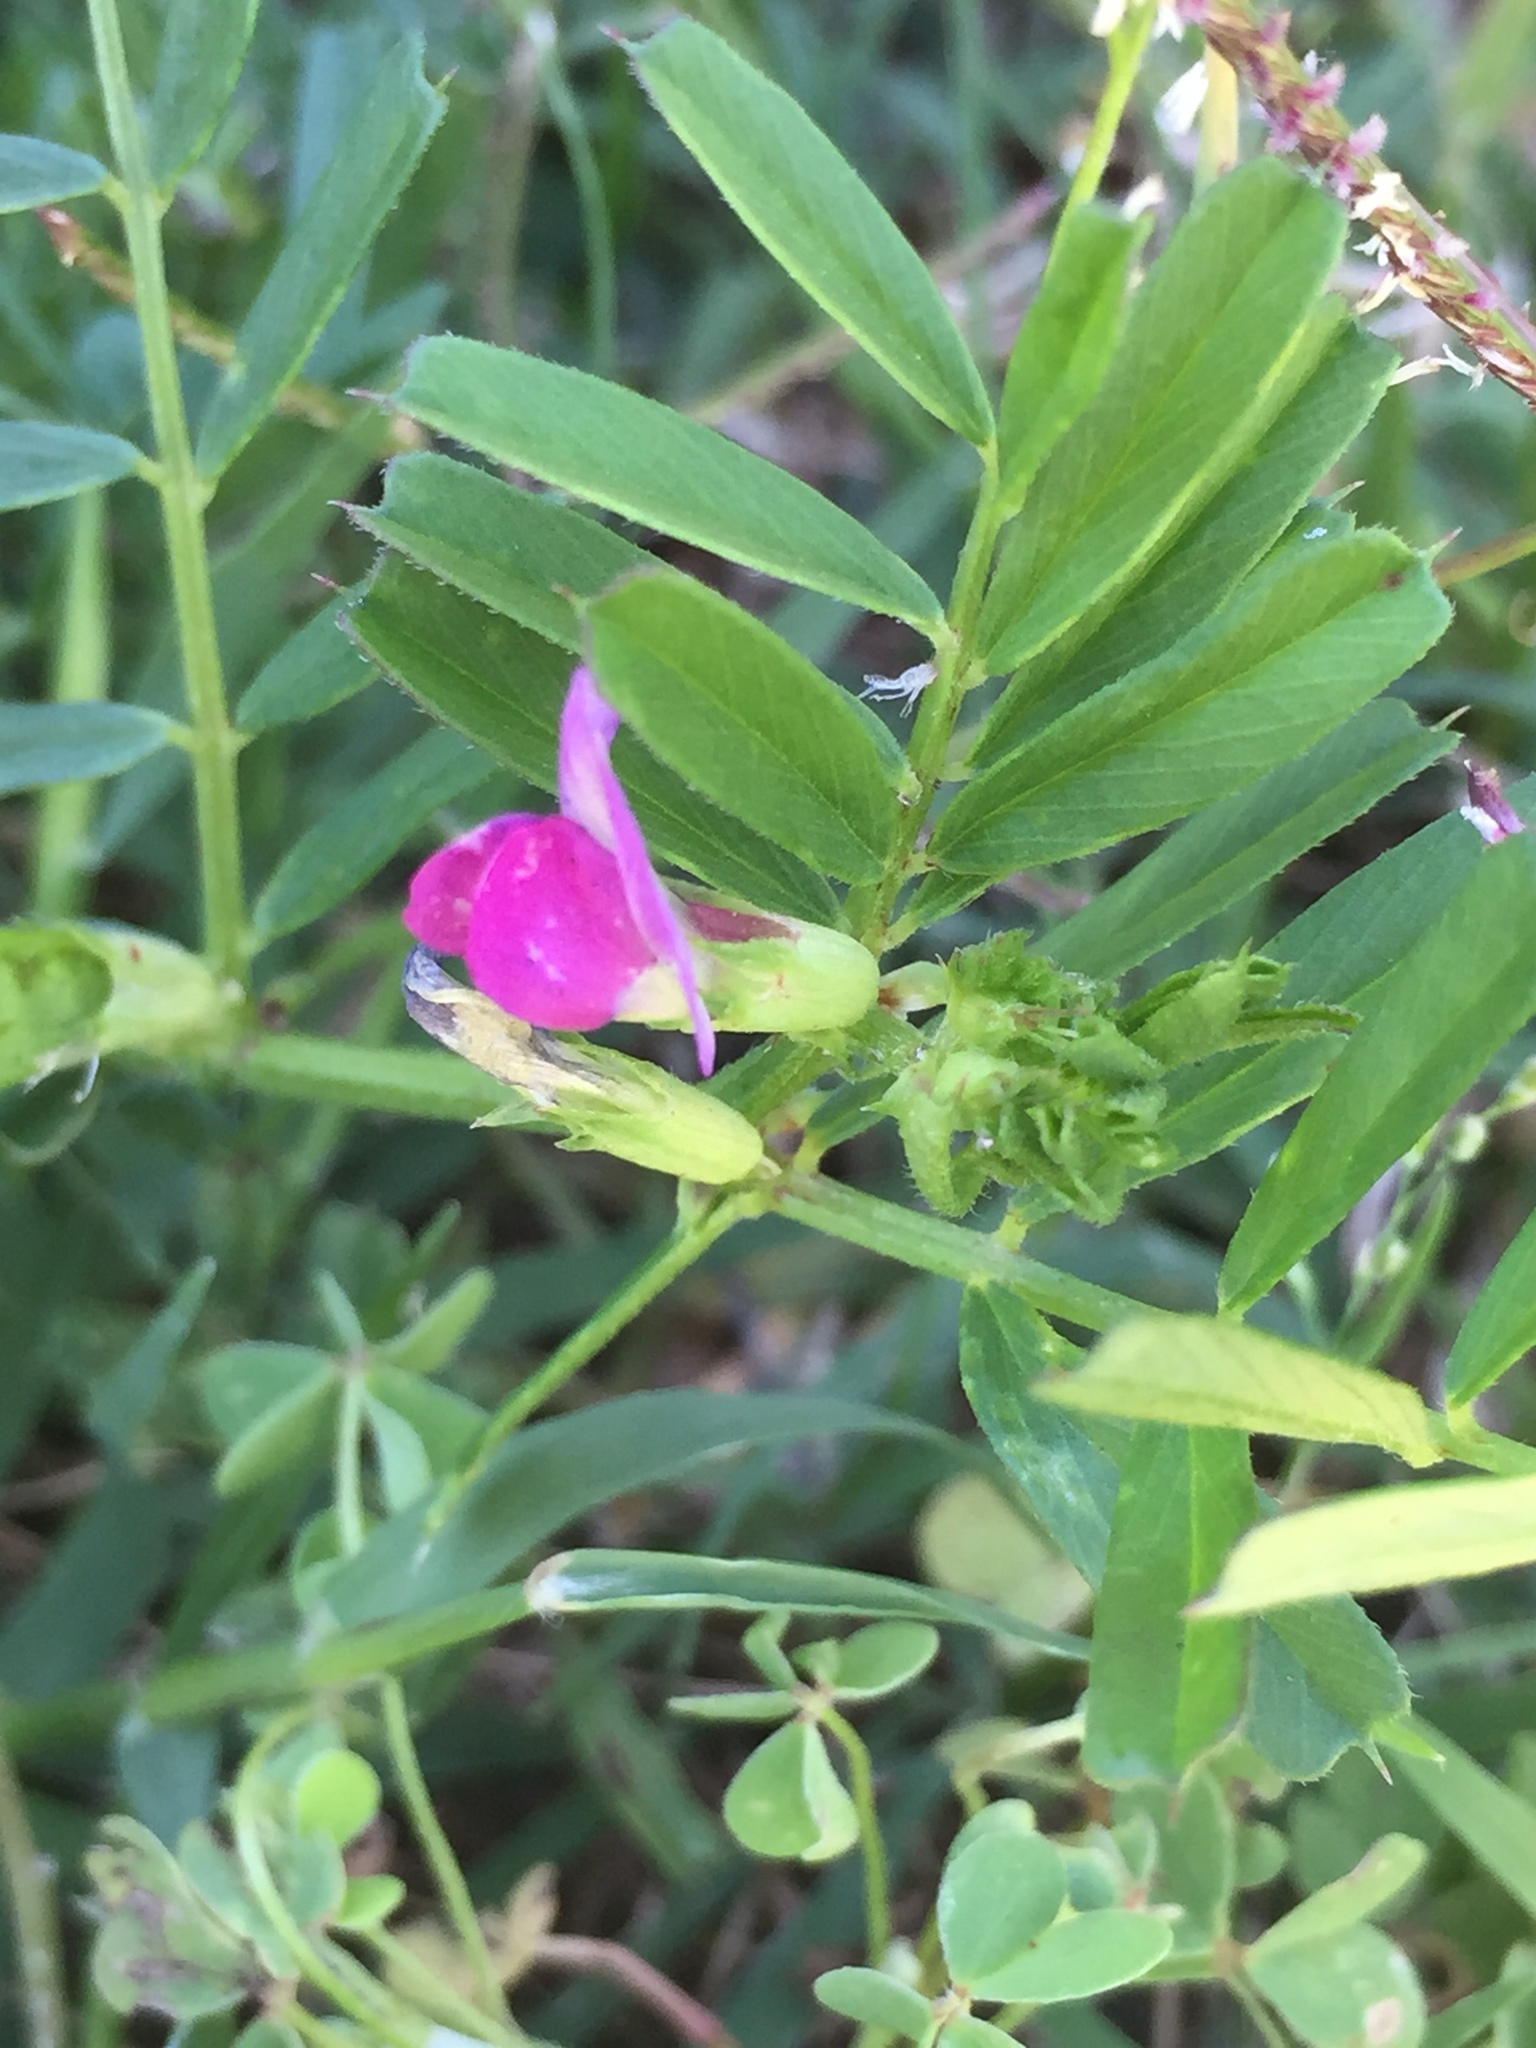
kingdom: Plantae
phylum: Tracheophyta
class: Magnoliopsida
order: Fabales
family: Fabaceae
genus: Vicia
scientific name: Vicia sativa
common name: Garden vetch
